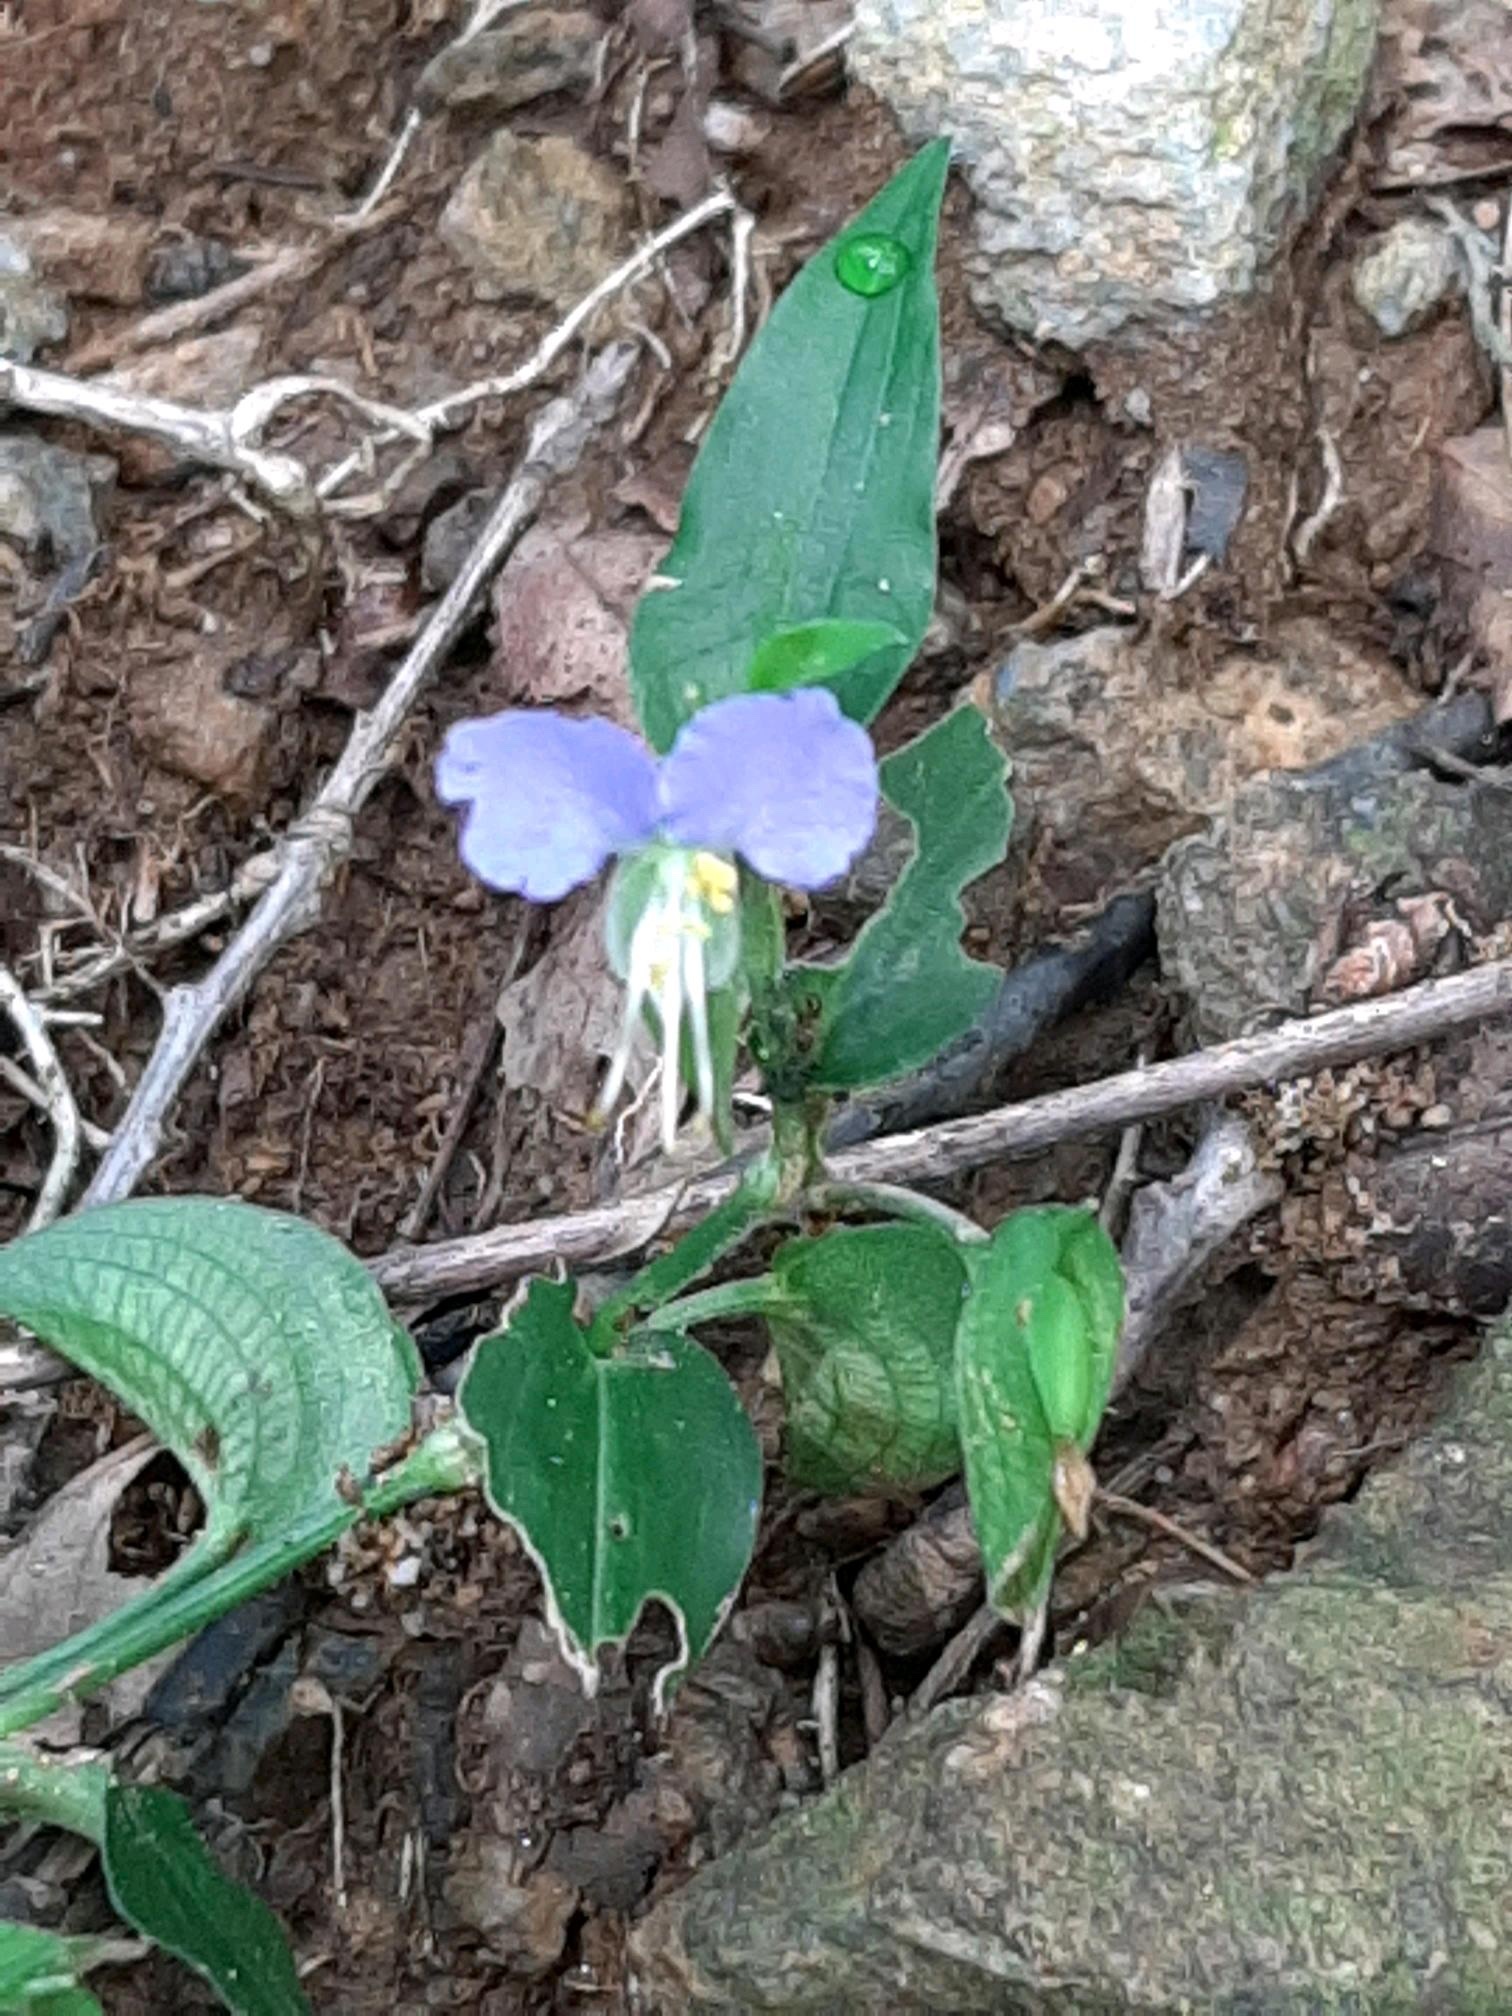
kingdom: Plantae
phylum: Tracheophyta
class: Liliopsida
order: Commelinales
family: Commelinaceae
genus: Commelina
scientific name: Commelina communis
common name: Asiatic dayflower
